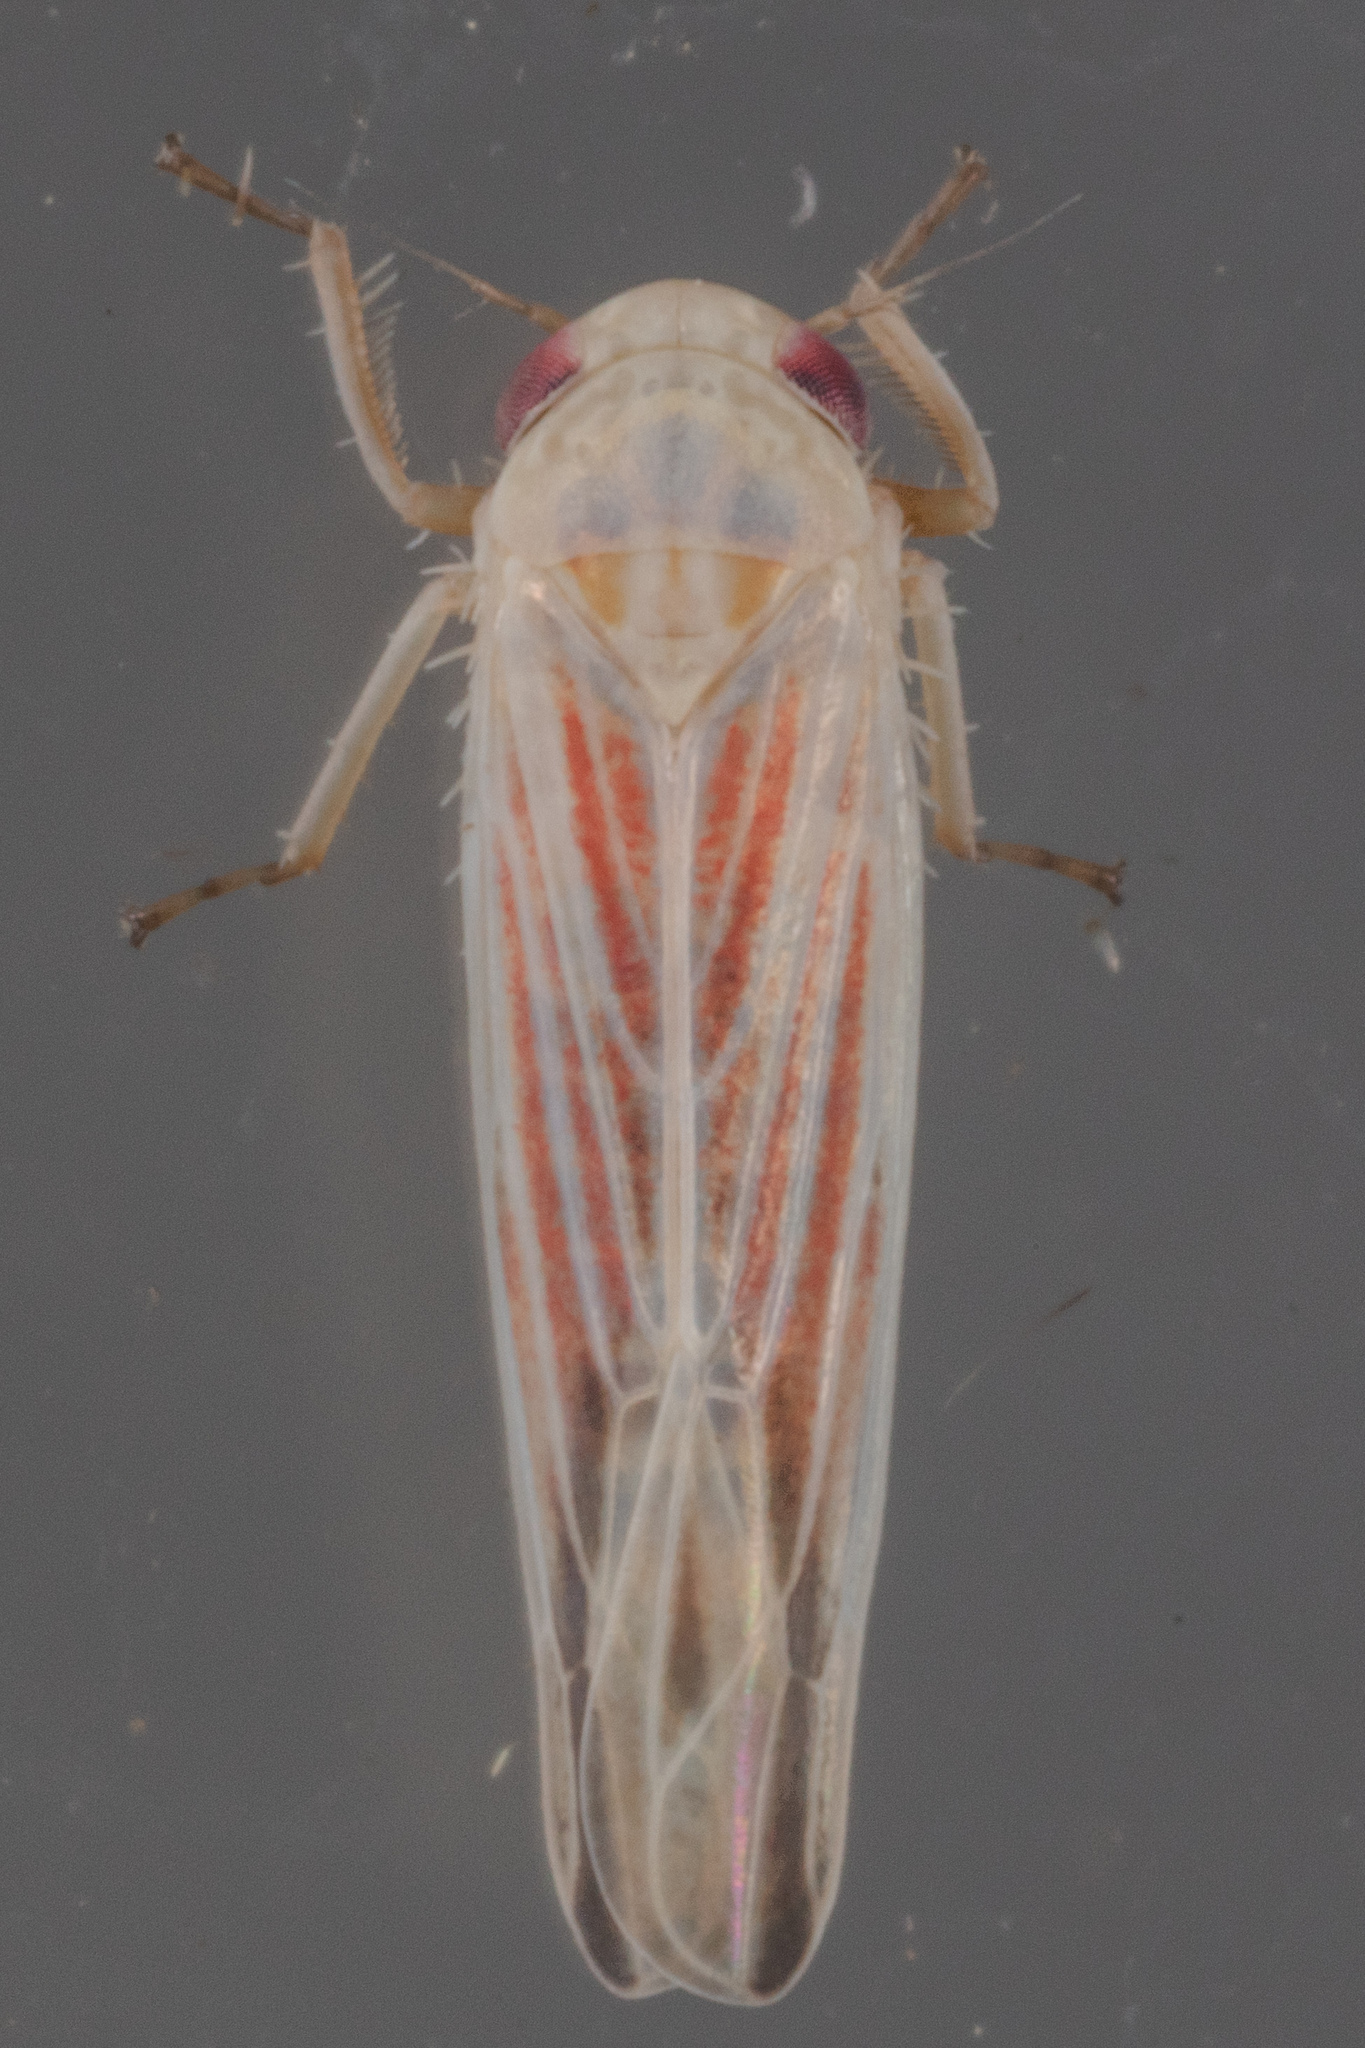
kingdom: Animalia
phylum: Arthropoda
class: Insecta
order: Hemiptera
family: Cicadellidae
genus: Balclutha
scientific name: Balclutha rubrostriata
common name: Red-streaked leafhopper
